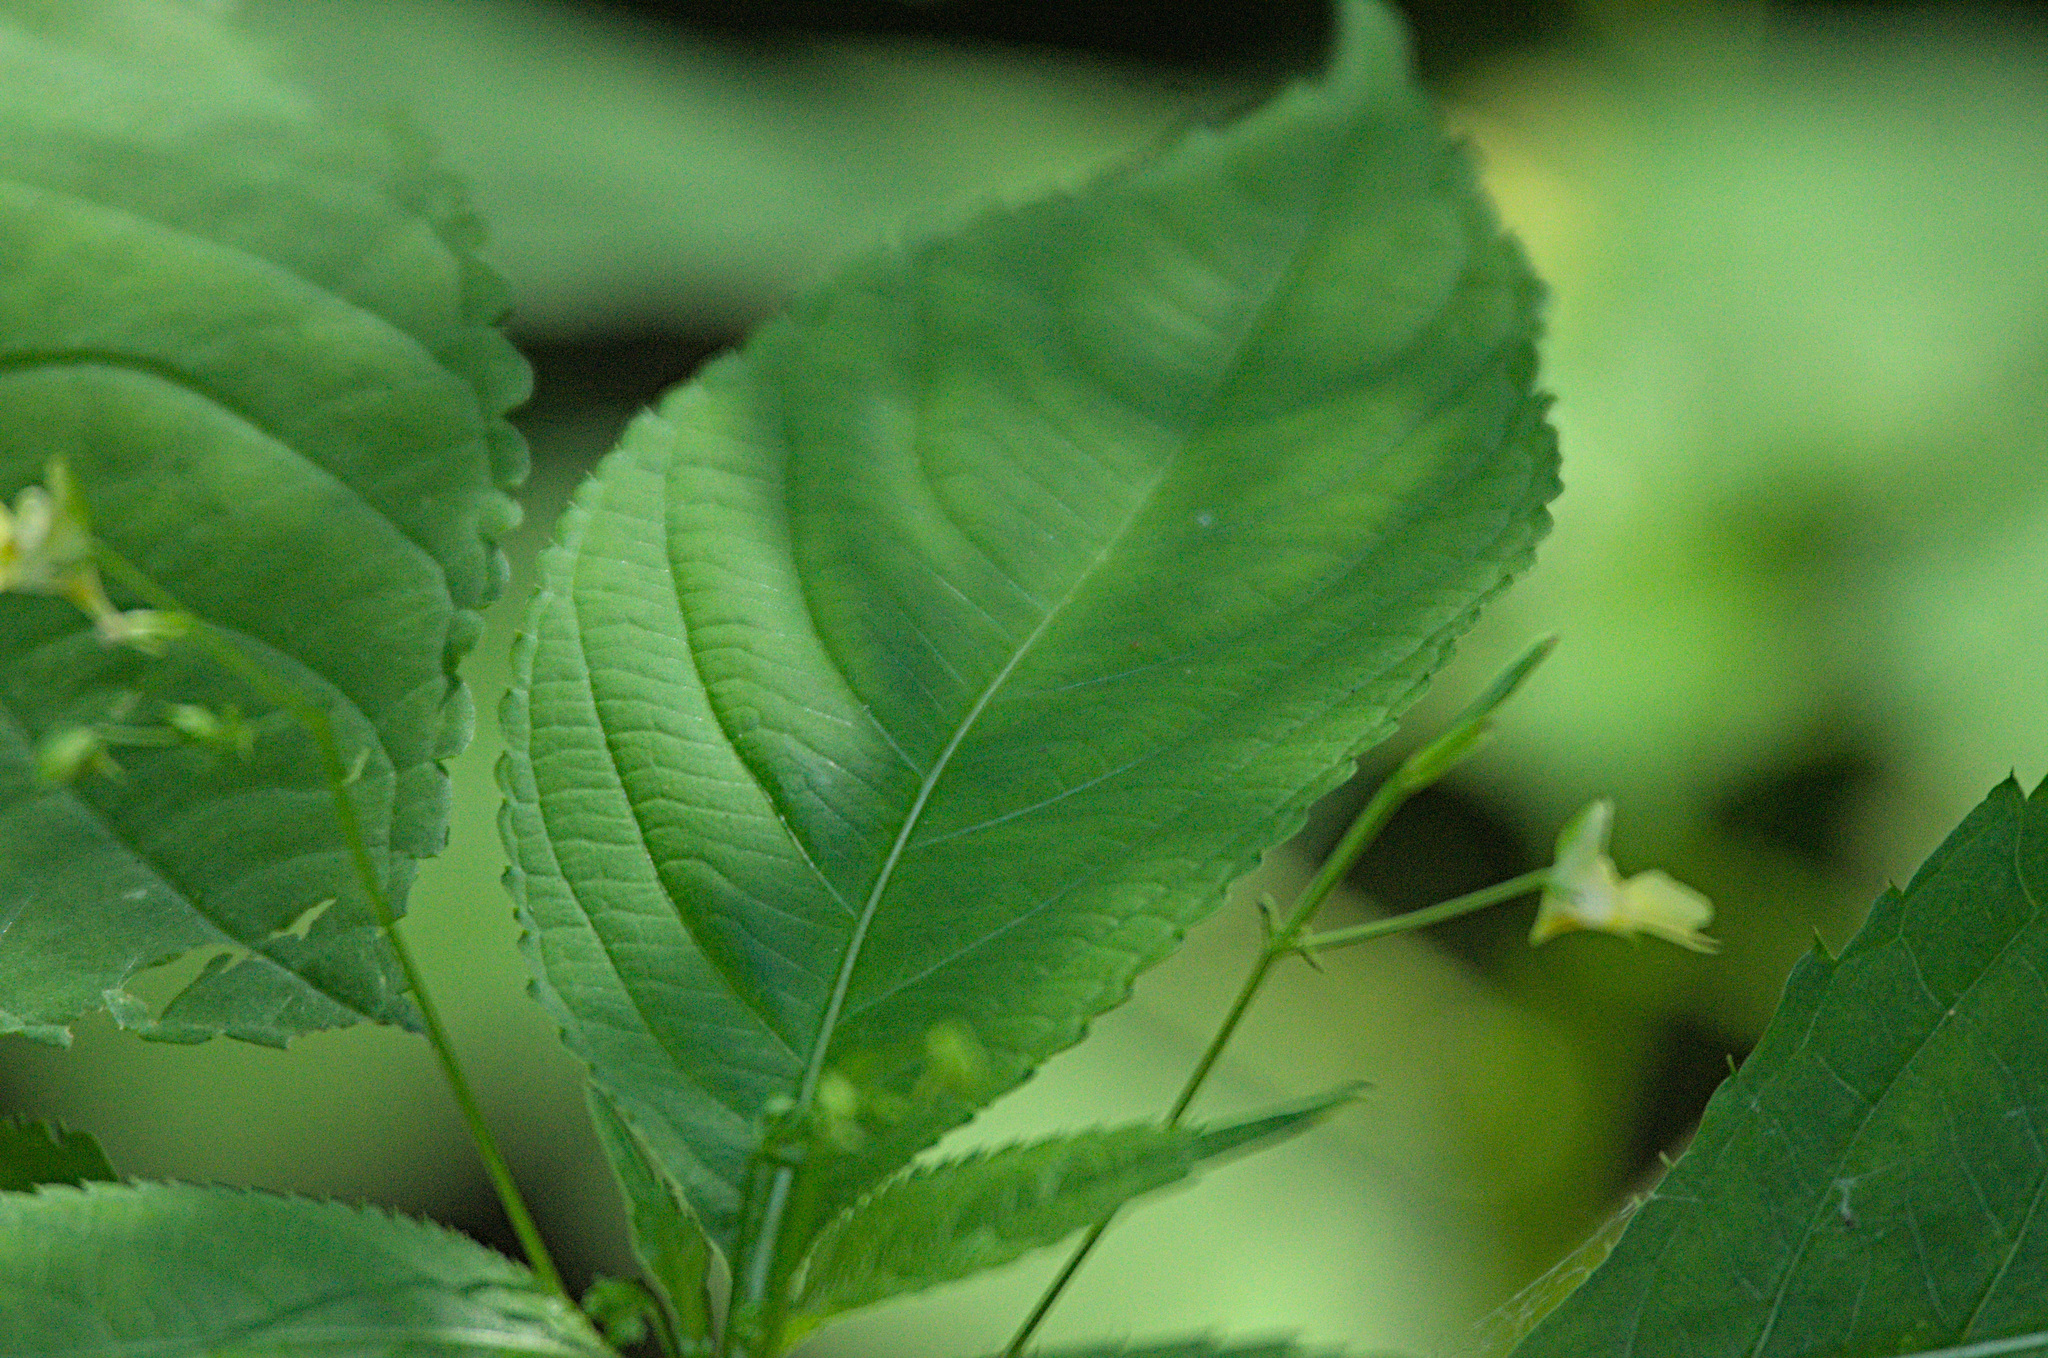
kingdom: Plantae
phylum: Tracheophyta
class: Magnoliopsida
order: Ericales
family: Balsaminaceae
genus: Impatiens
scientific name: Impatiens parviflora
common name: Small balsam
